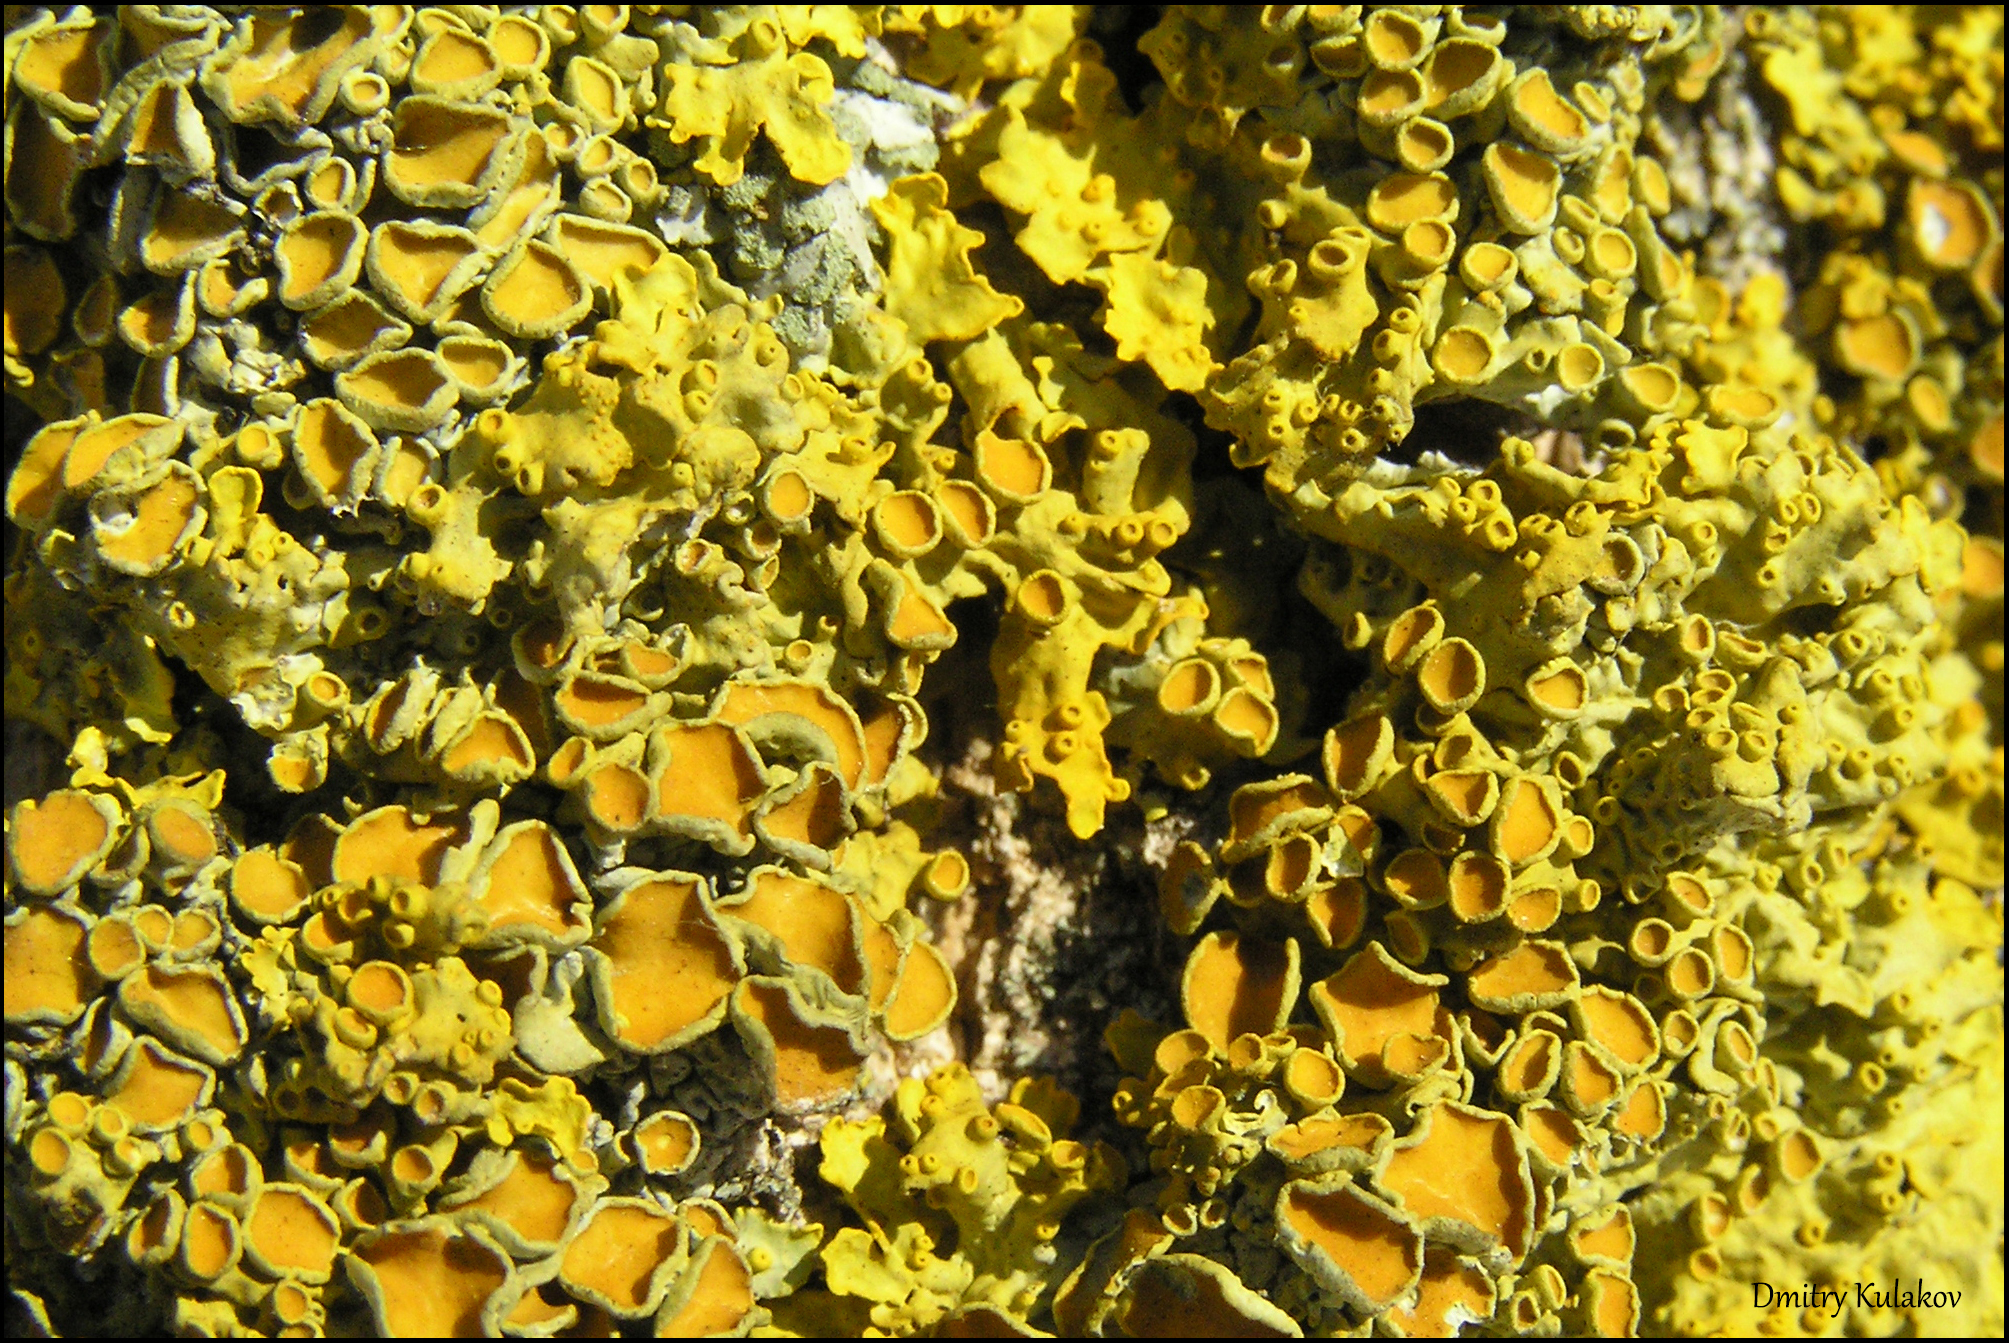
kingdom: Fungi
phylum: Ascomycota
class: Lecanoromycetes
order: Teloschistales
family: Teloschistaceae
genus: Xanthoria
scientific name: Xanthoria parietina
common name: Common orange lichen
